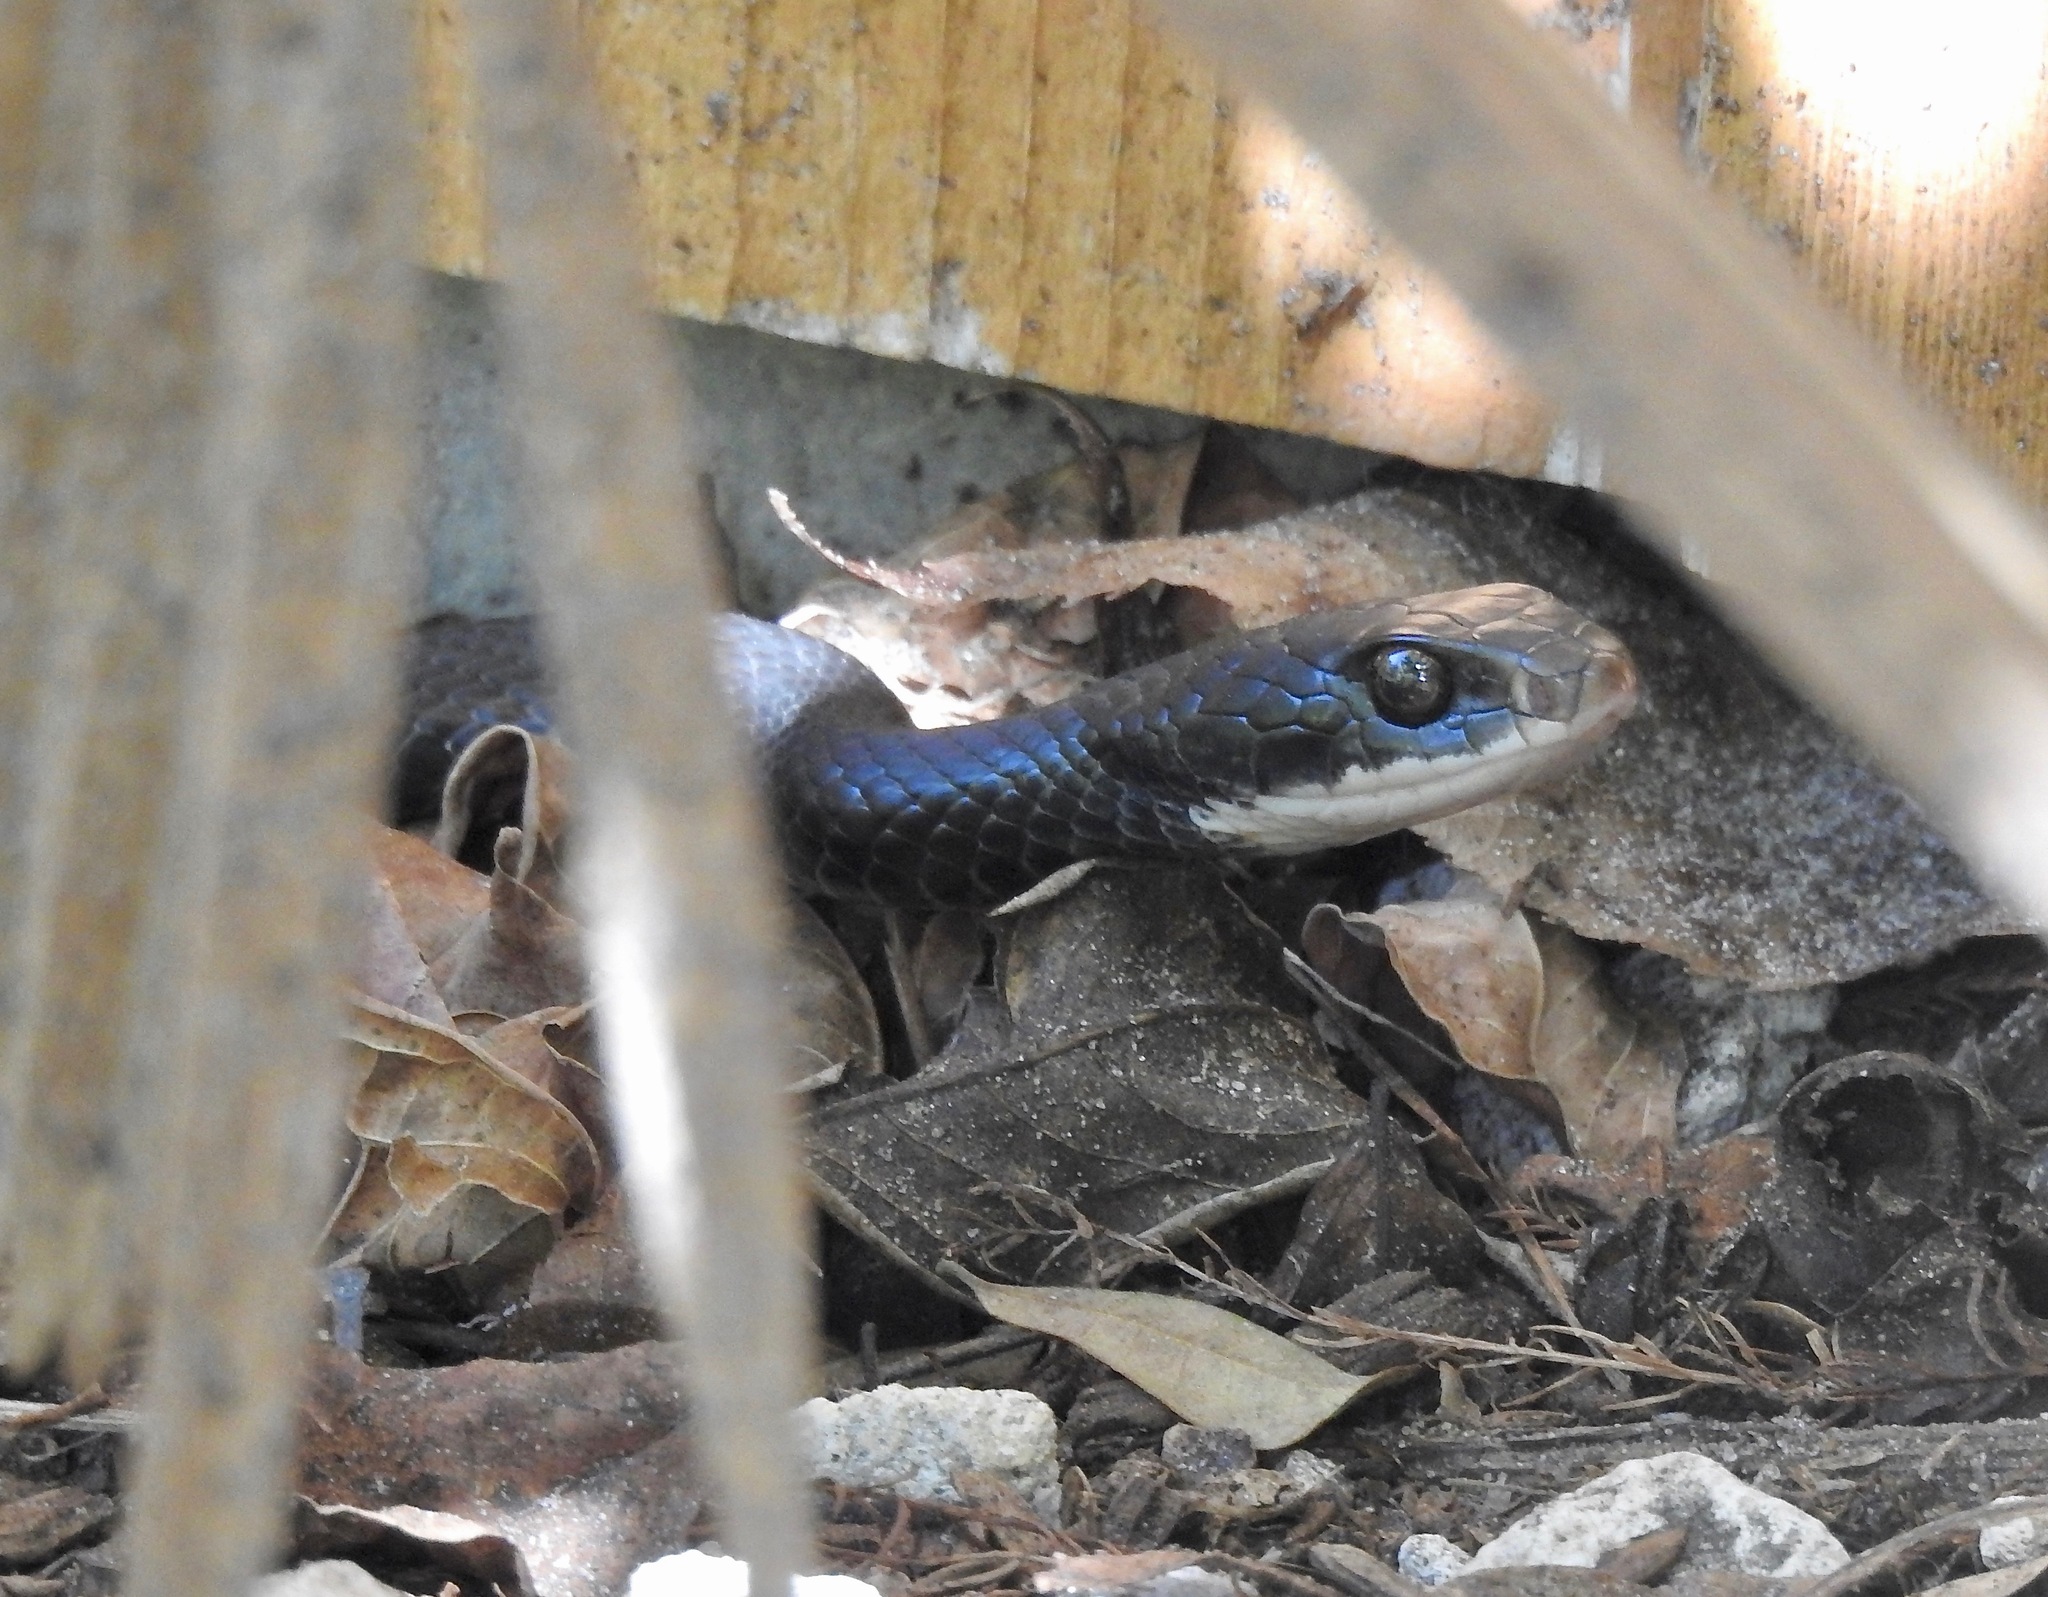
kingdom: Animalia
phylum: Chordata
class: Squamata
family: Colubridae
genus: Coluber
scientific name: Coluber constrictor
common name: Eastern racer
